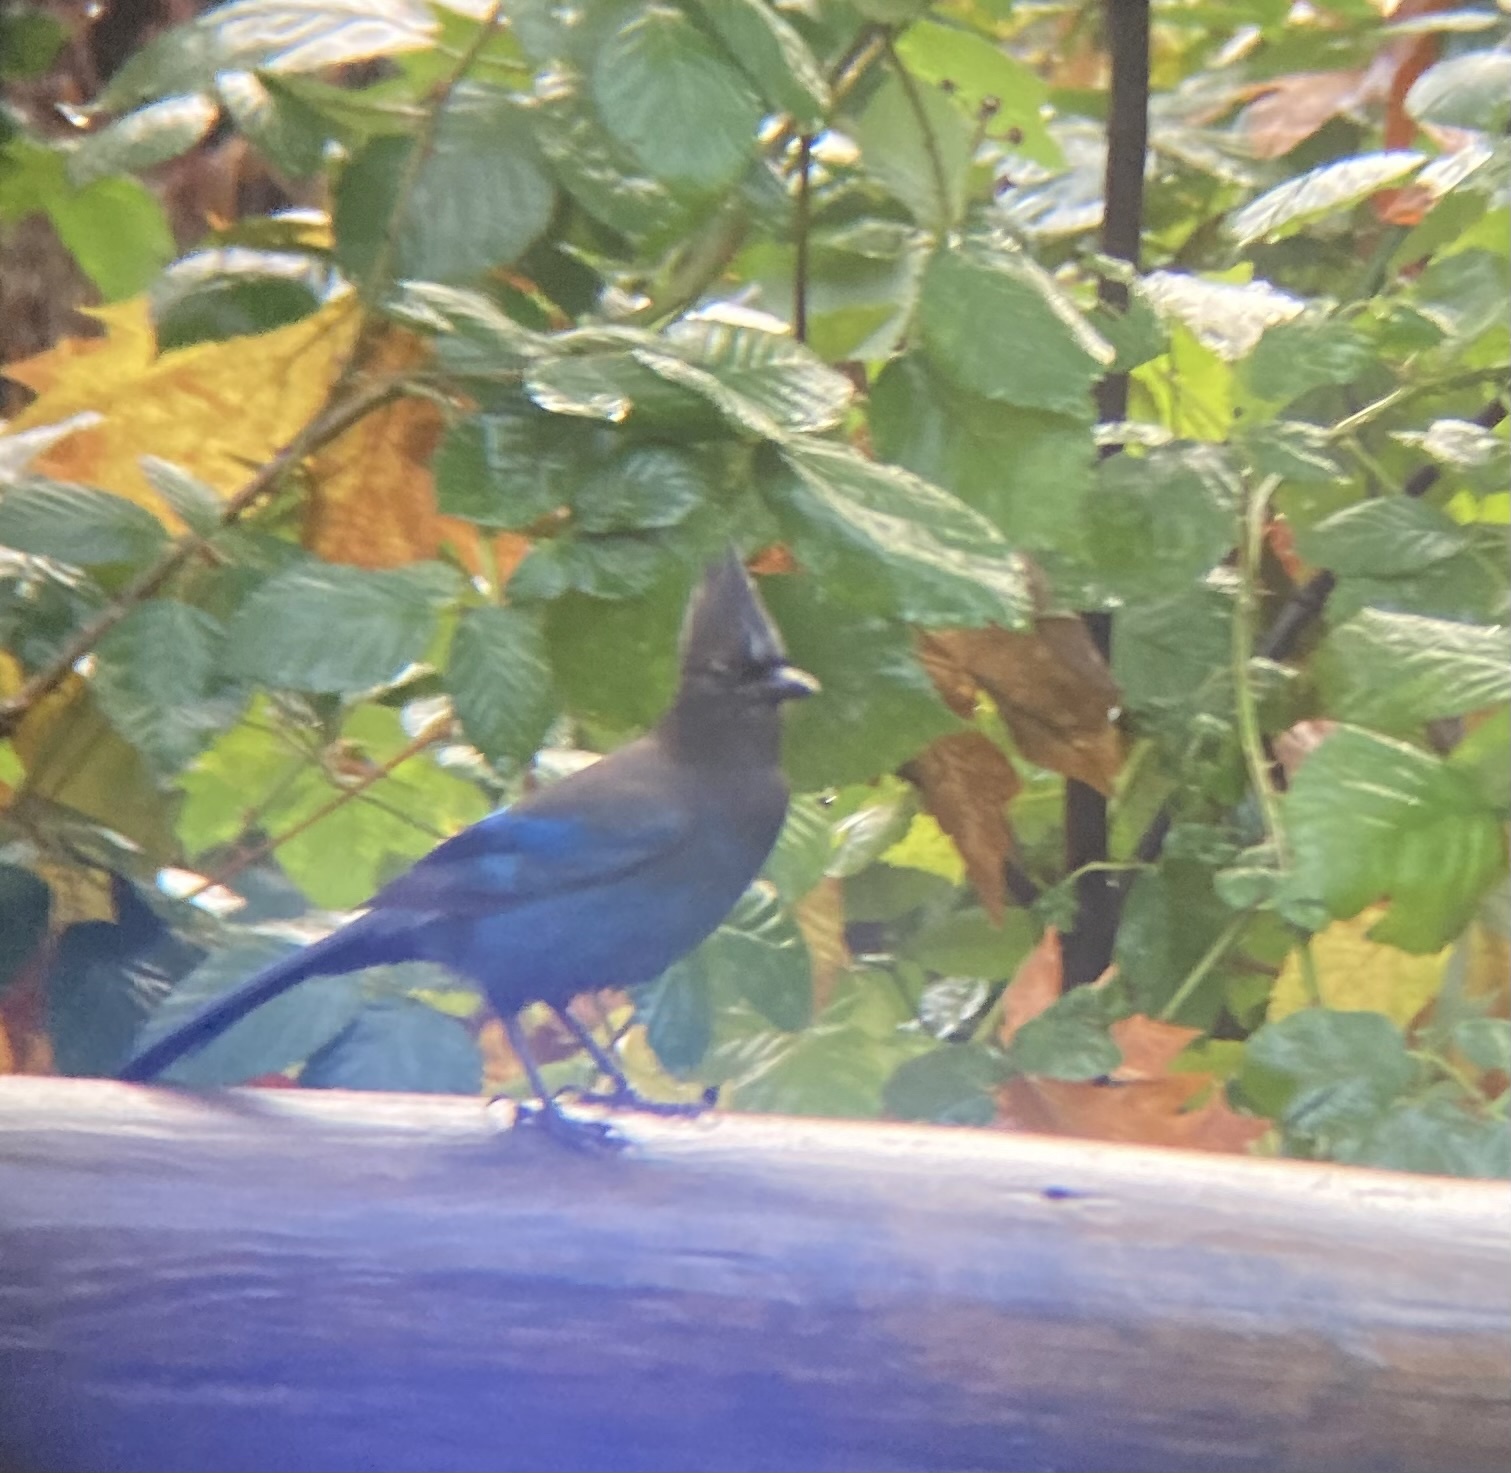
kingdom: Animalia
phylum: Chordata
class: Aves
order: Passeriformes
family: Corvidae
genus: Cyanocitta
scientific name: Cyanocitta stelleri
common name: Steller's jay
